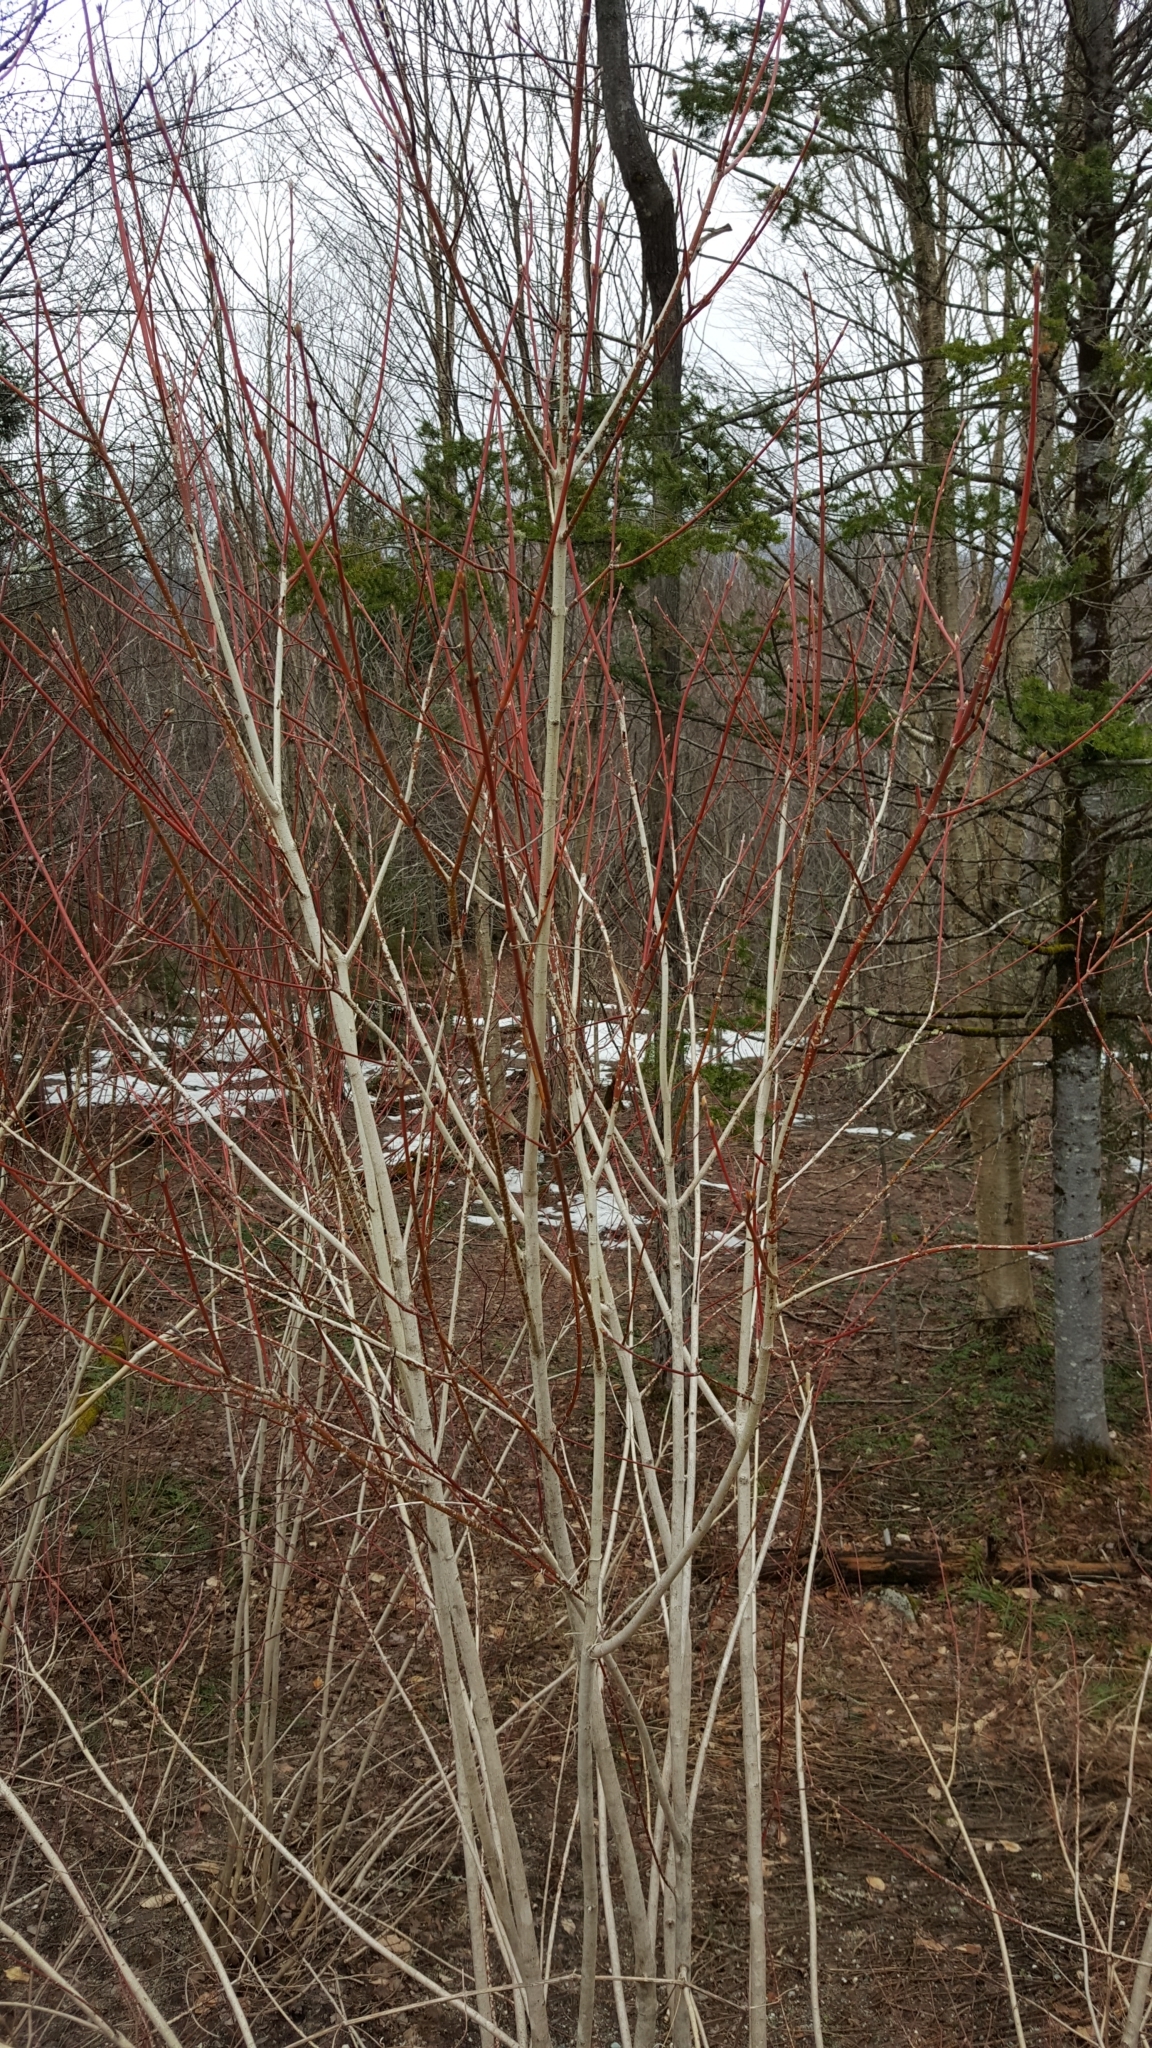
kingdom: Plantae
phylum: Tracheophyta
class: Magnoliopsida
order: Sapindales
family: Sapindaceae
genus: Acer
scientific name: Acer spicatum
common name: Mountain maple
